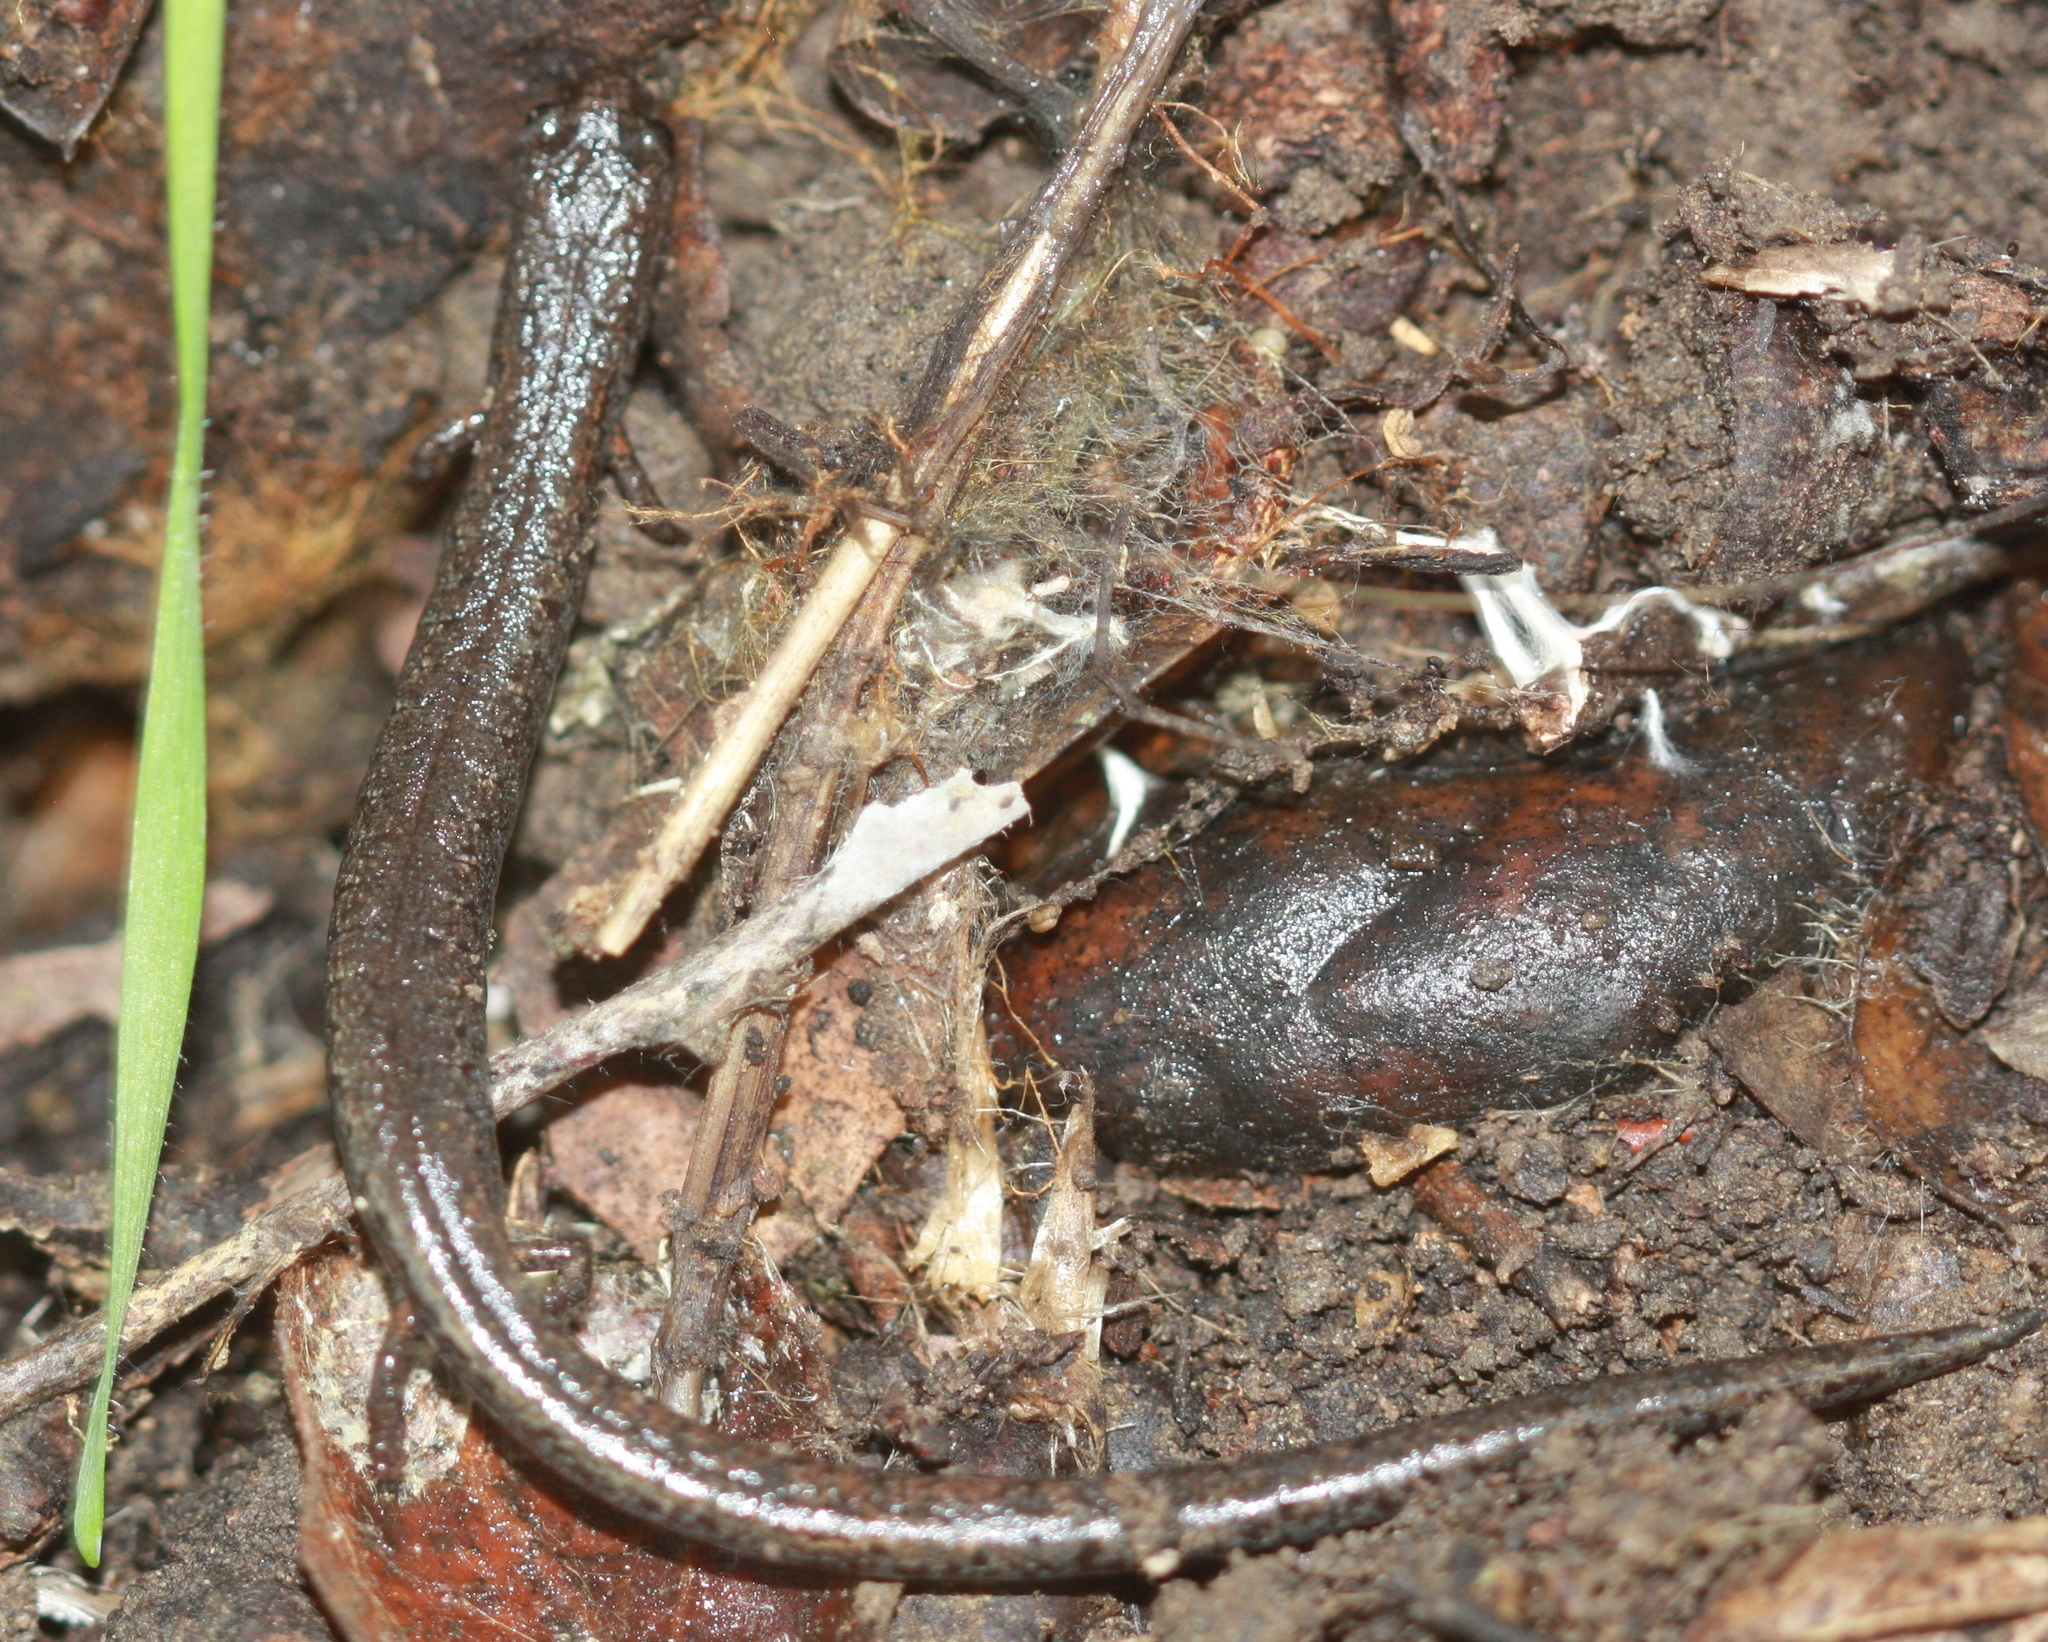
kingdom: Animalia
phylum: Chordata
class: Amphibia
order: Caudata
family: Plethodontidae
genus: Batrachoseps
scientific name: Batrachoseps attenuatus
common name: California slender salamander
